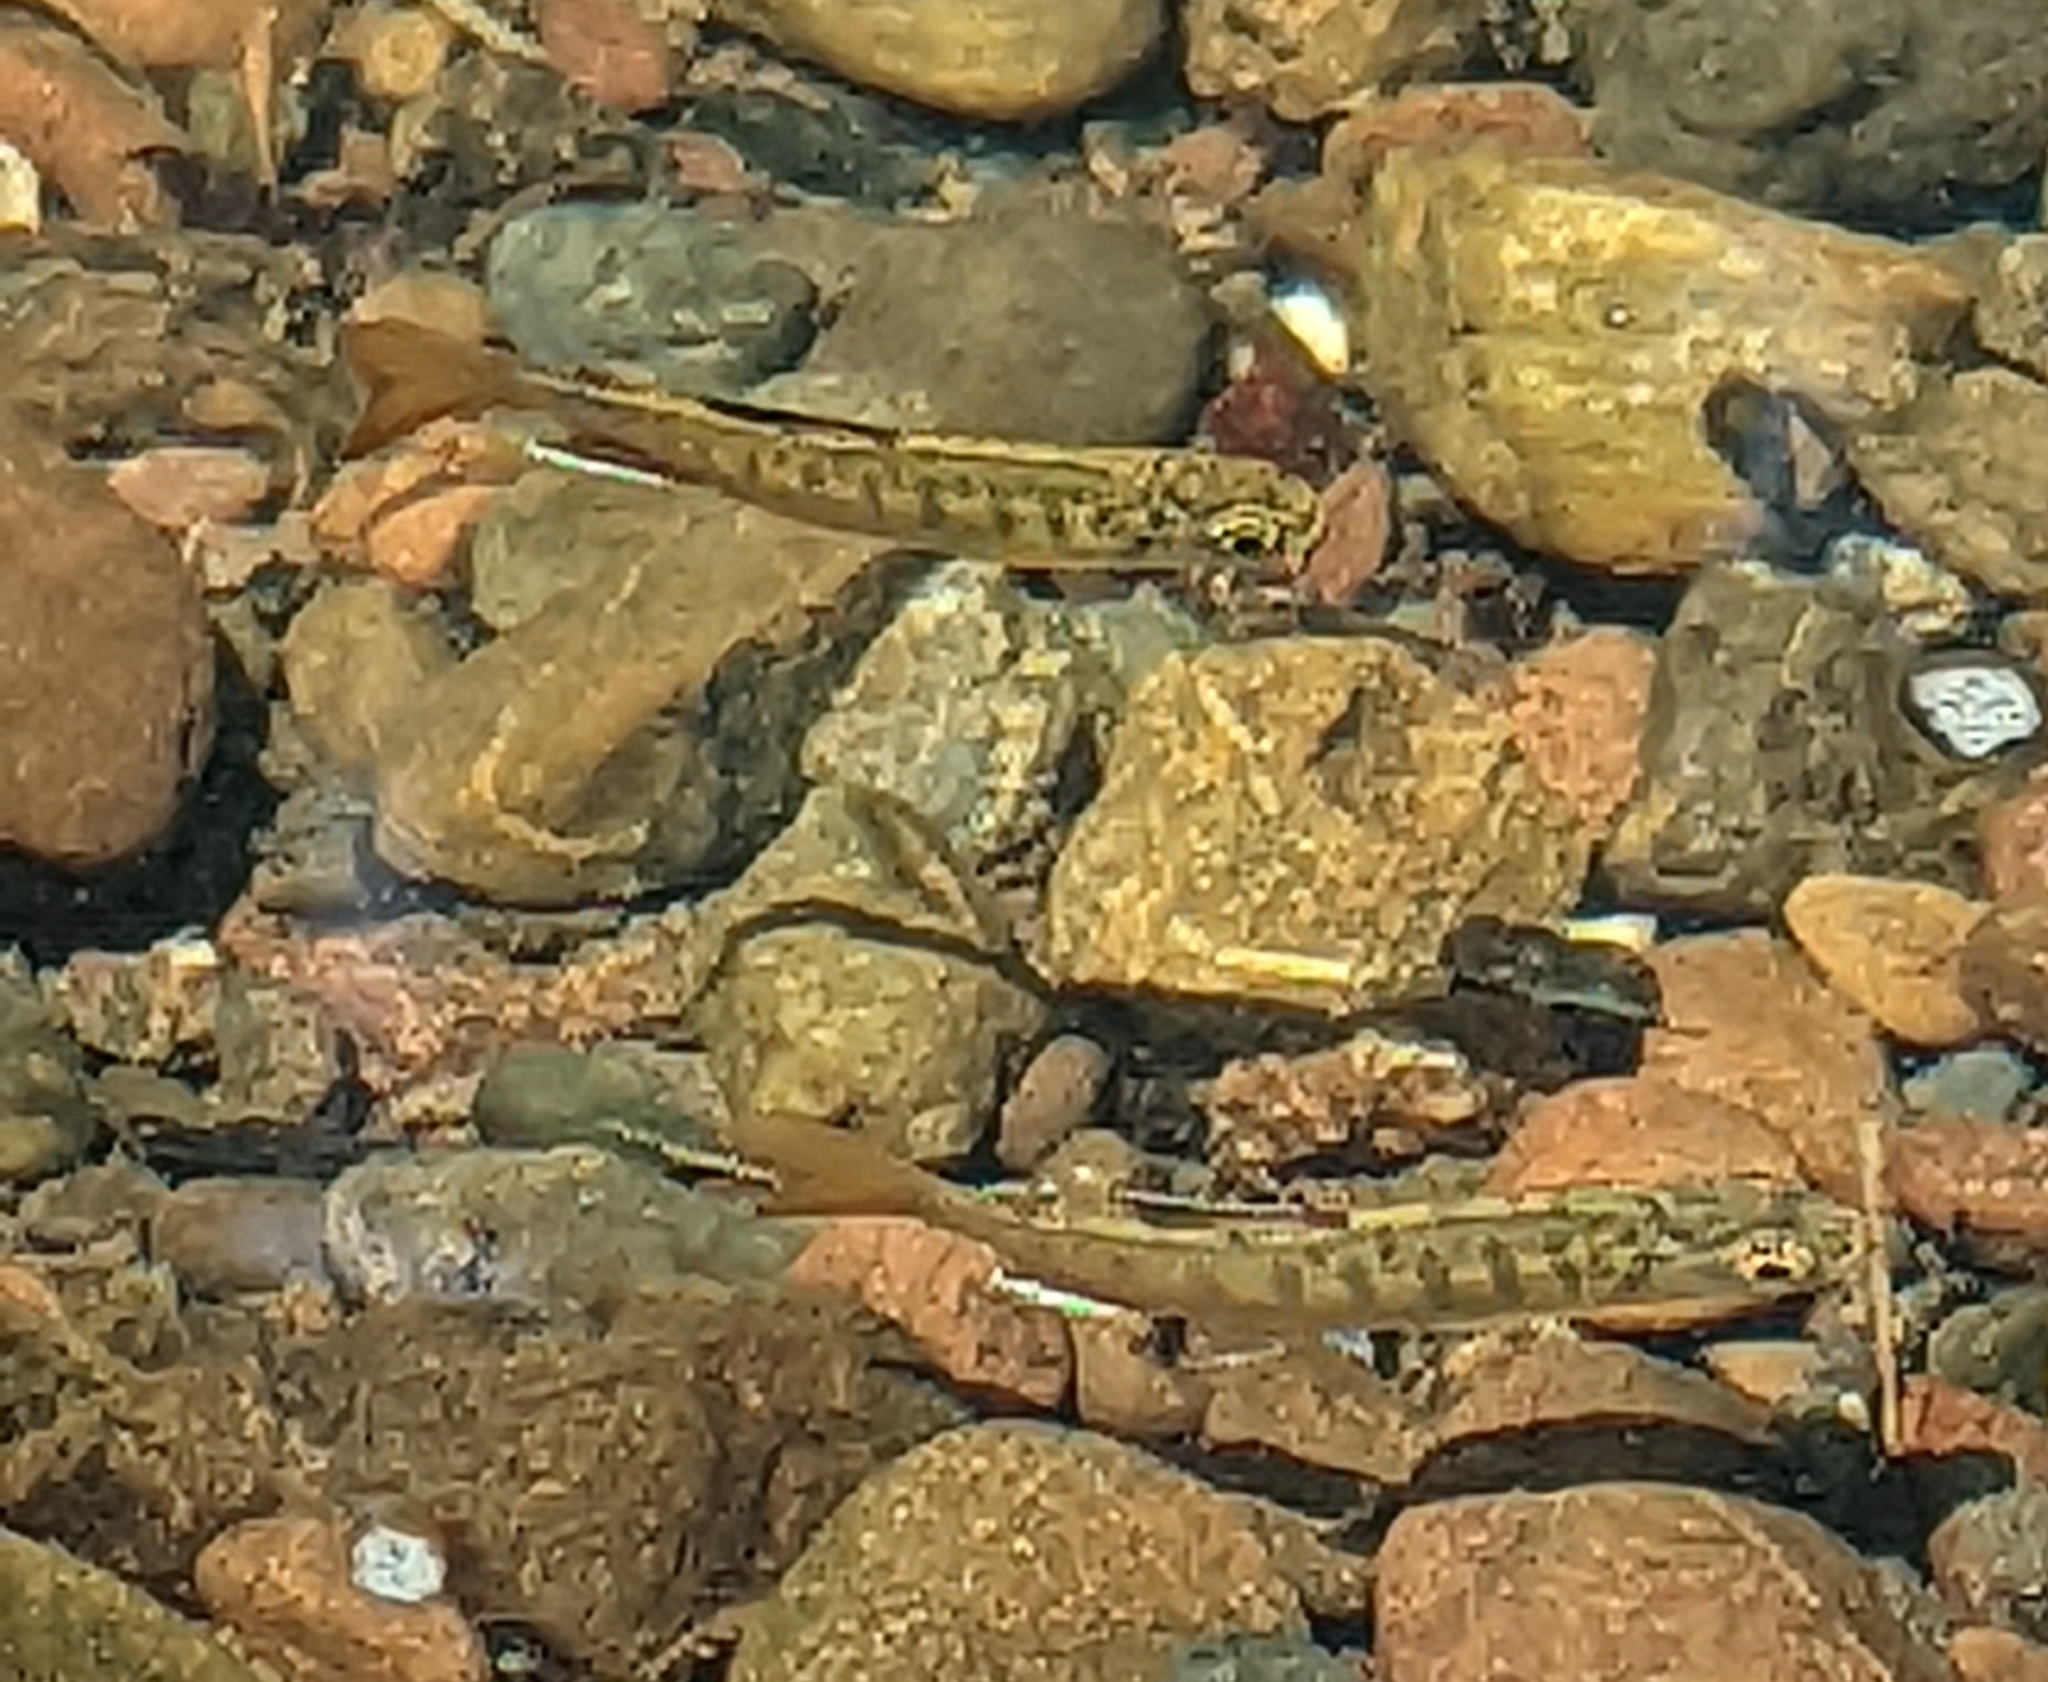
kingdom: Animalia
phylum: Chordata
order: Salmoniformes
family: Salmonidae
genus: Oncorhynchus
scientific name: Oncorhynchus kisutch
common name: Coho salmon
